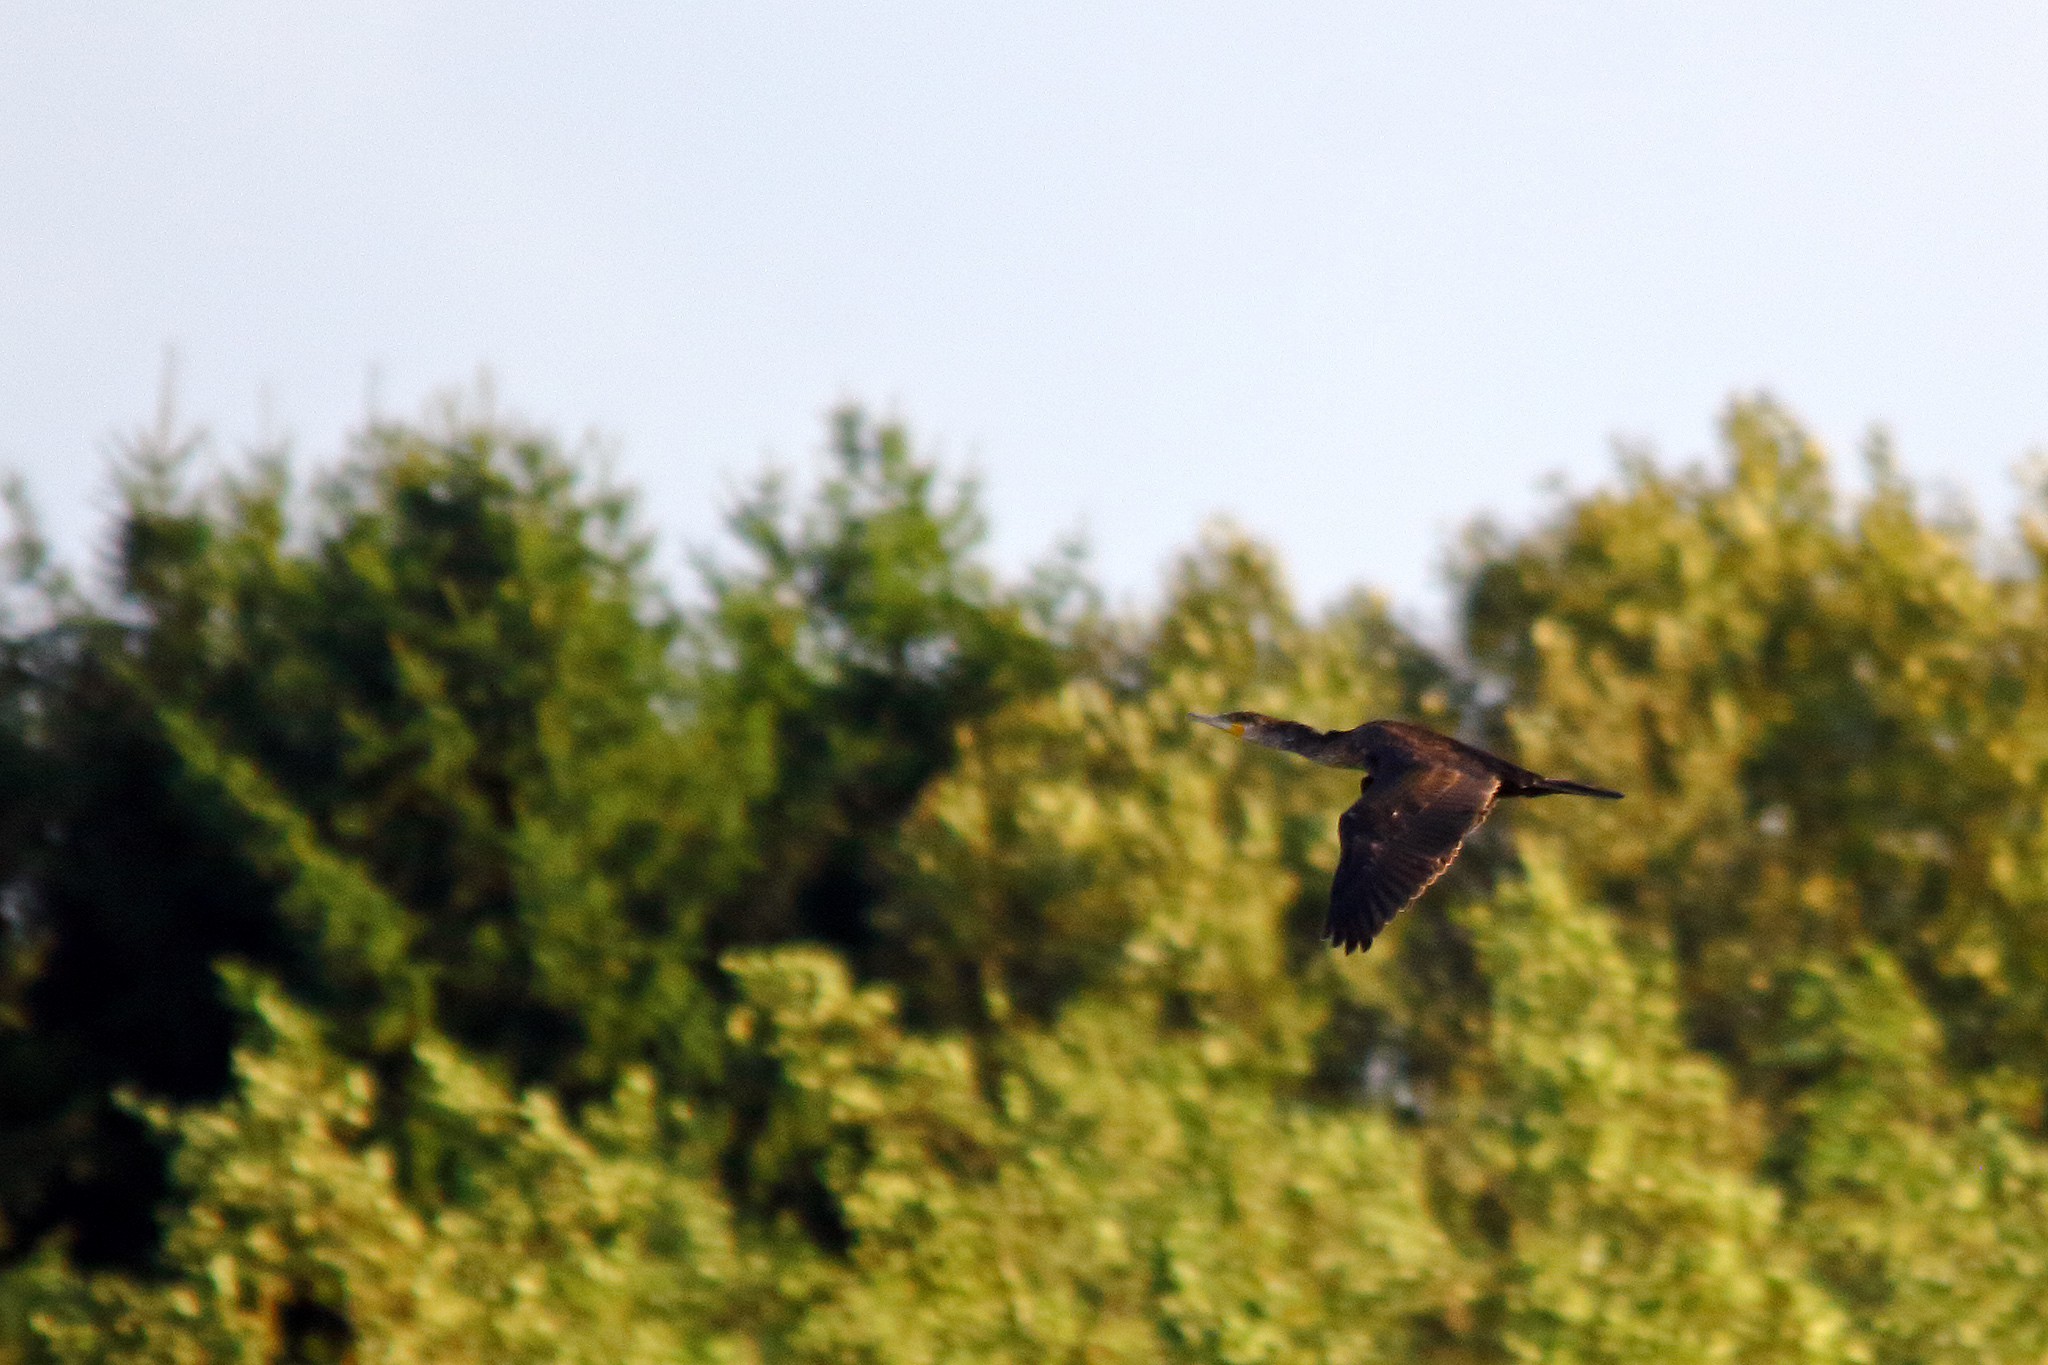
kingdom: Animalia
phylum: Chordata
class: Aves
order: Suliformes
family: Phalacrocoracidae
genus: Phalacrocorax
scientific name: Phalacrocorax carbo
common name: Great cormorant
